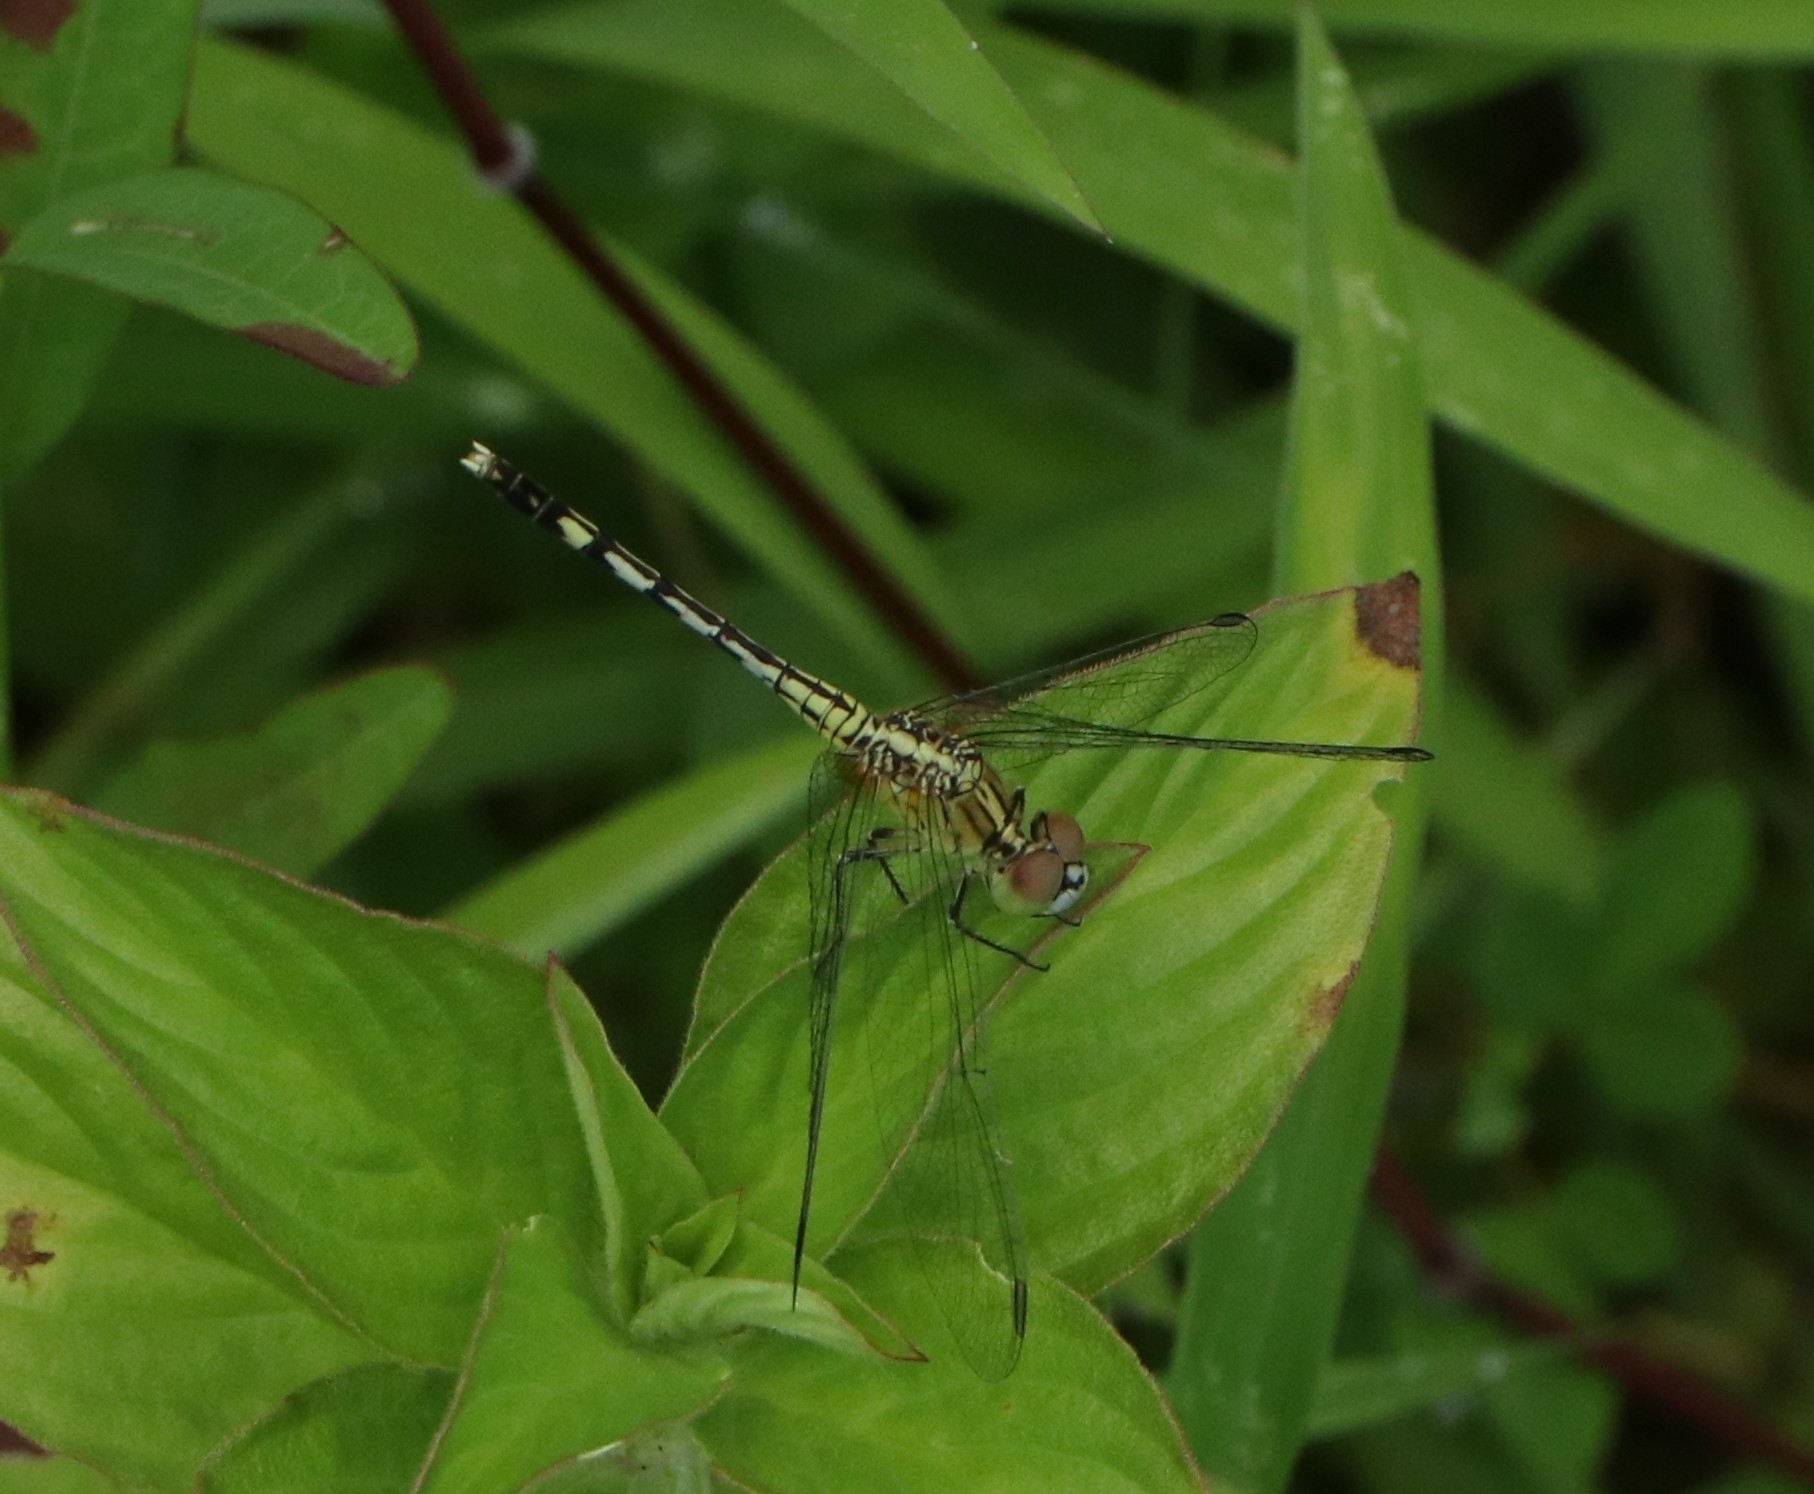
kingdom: Animalia
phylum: Arthropoda
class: Insecta
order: Odonata
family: Libellulidae
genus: Diplacodes
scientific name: Diplacodes trivialis
